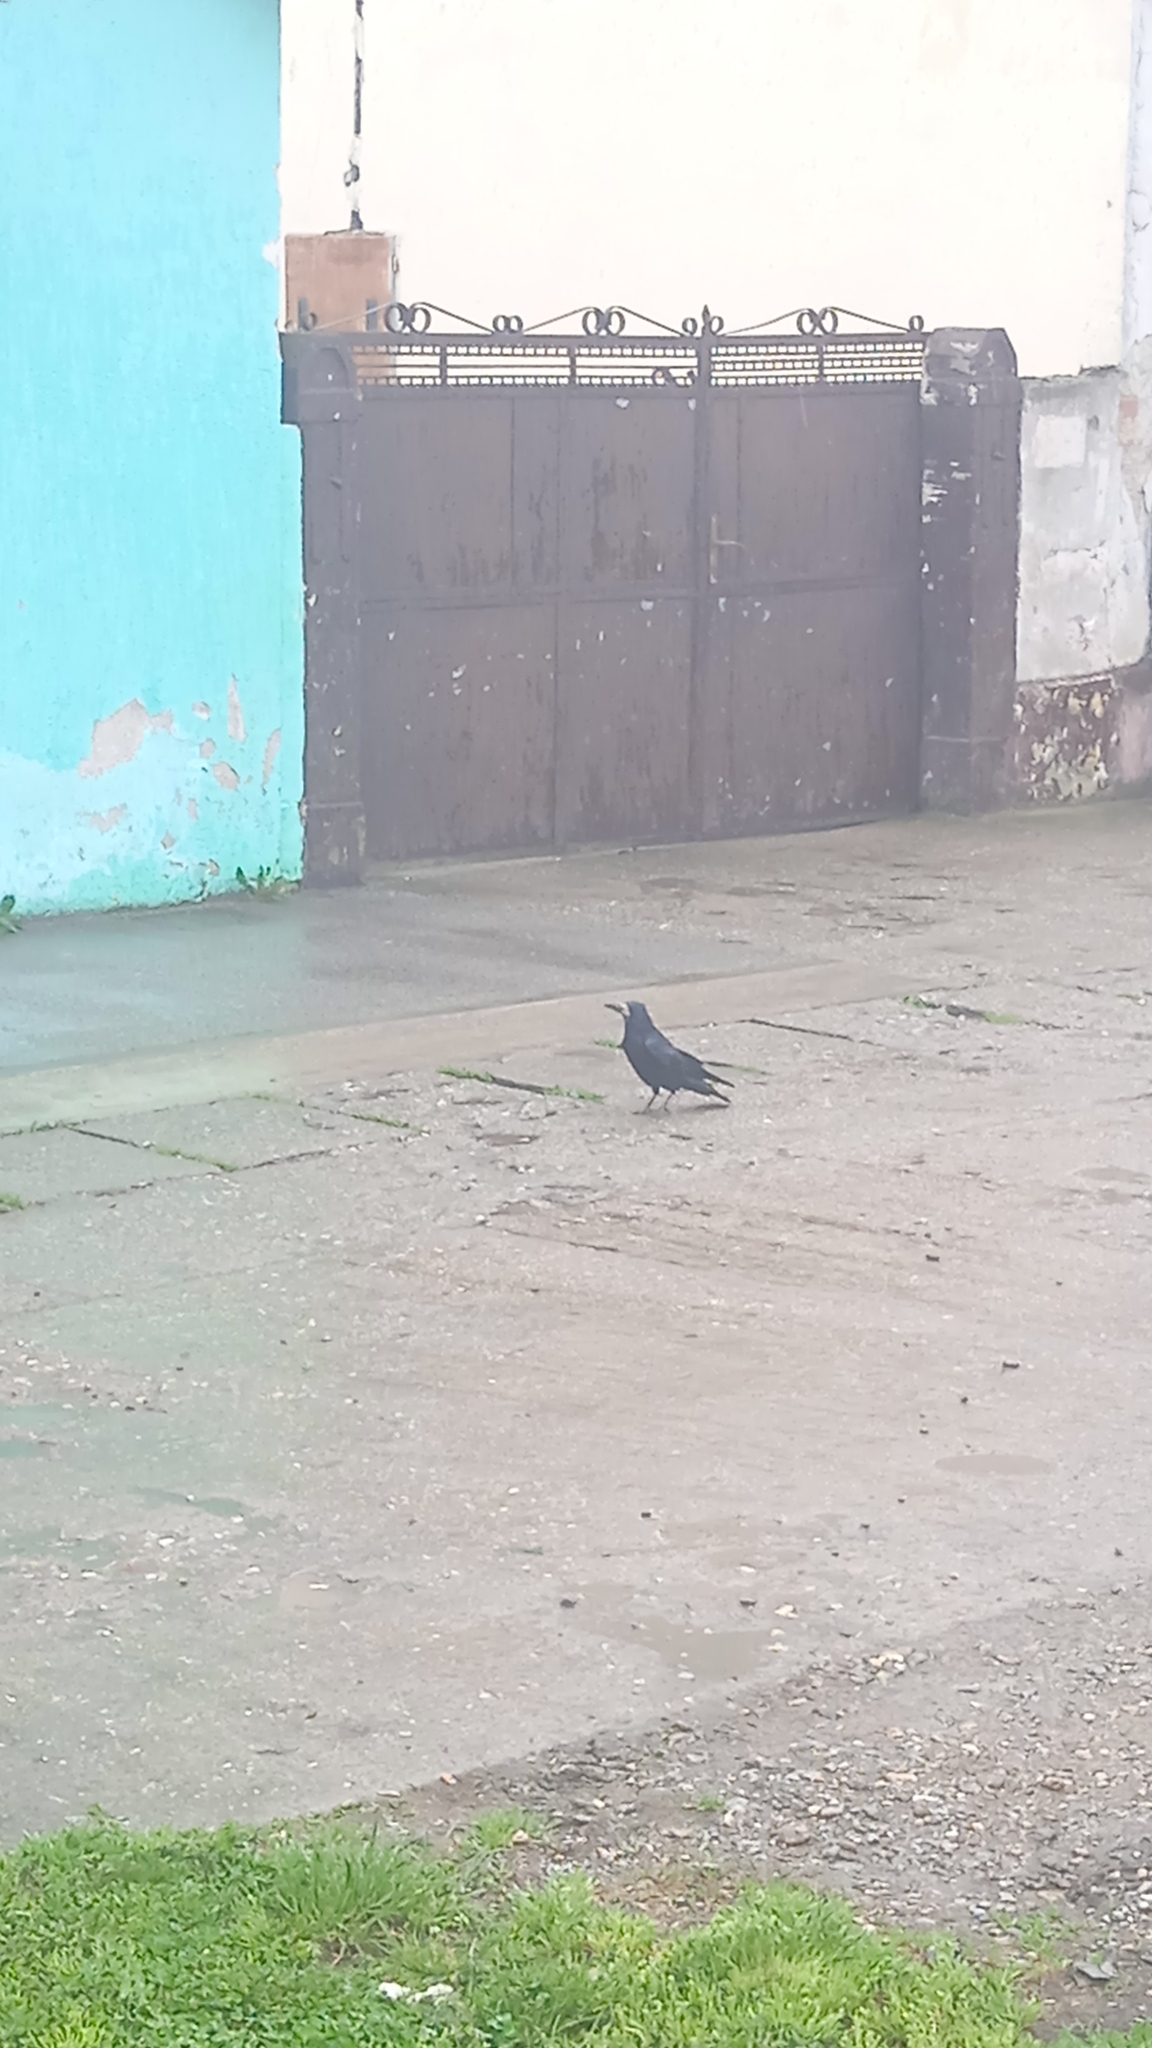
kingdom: Animalia
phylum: Chordata
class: Aves
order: Passeriformes
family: Corvidae
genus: Corvus
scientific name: Corvus frugilegus
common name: Rook
